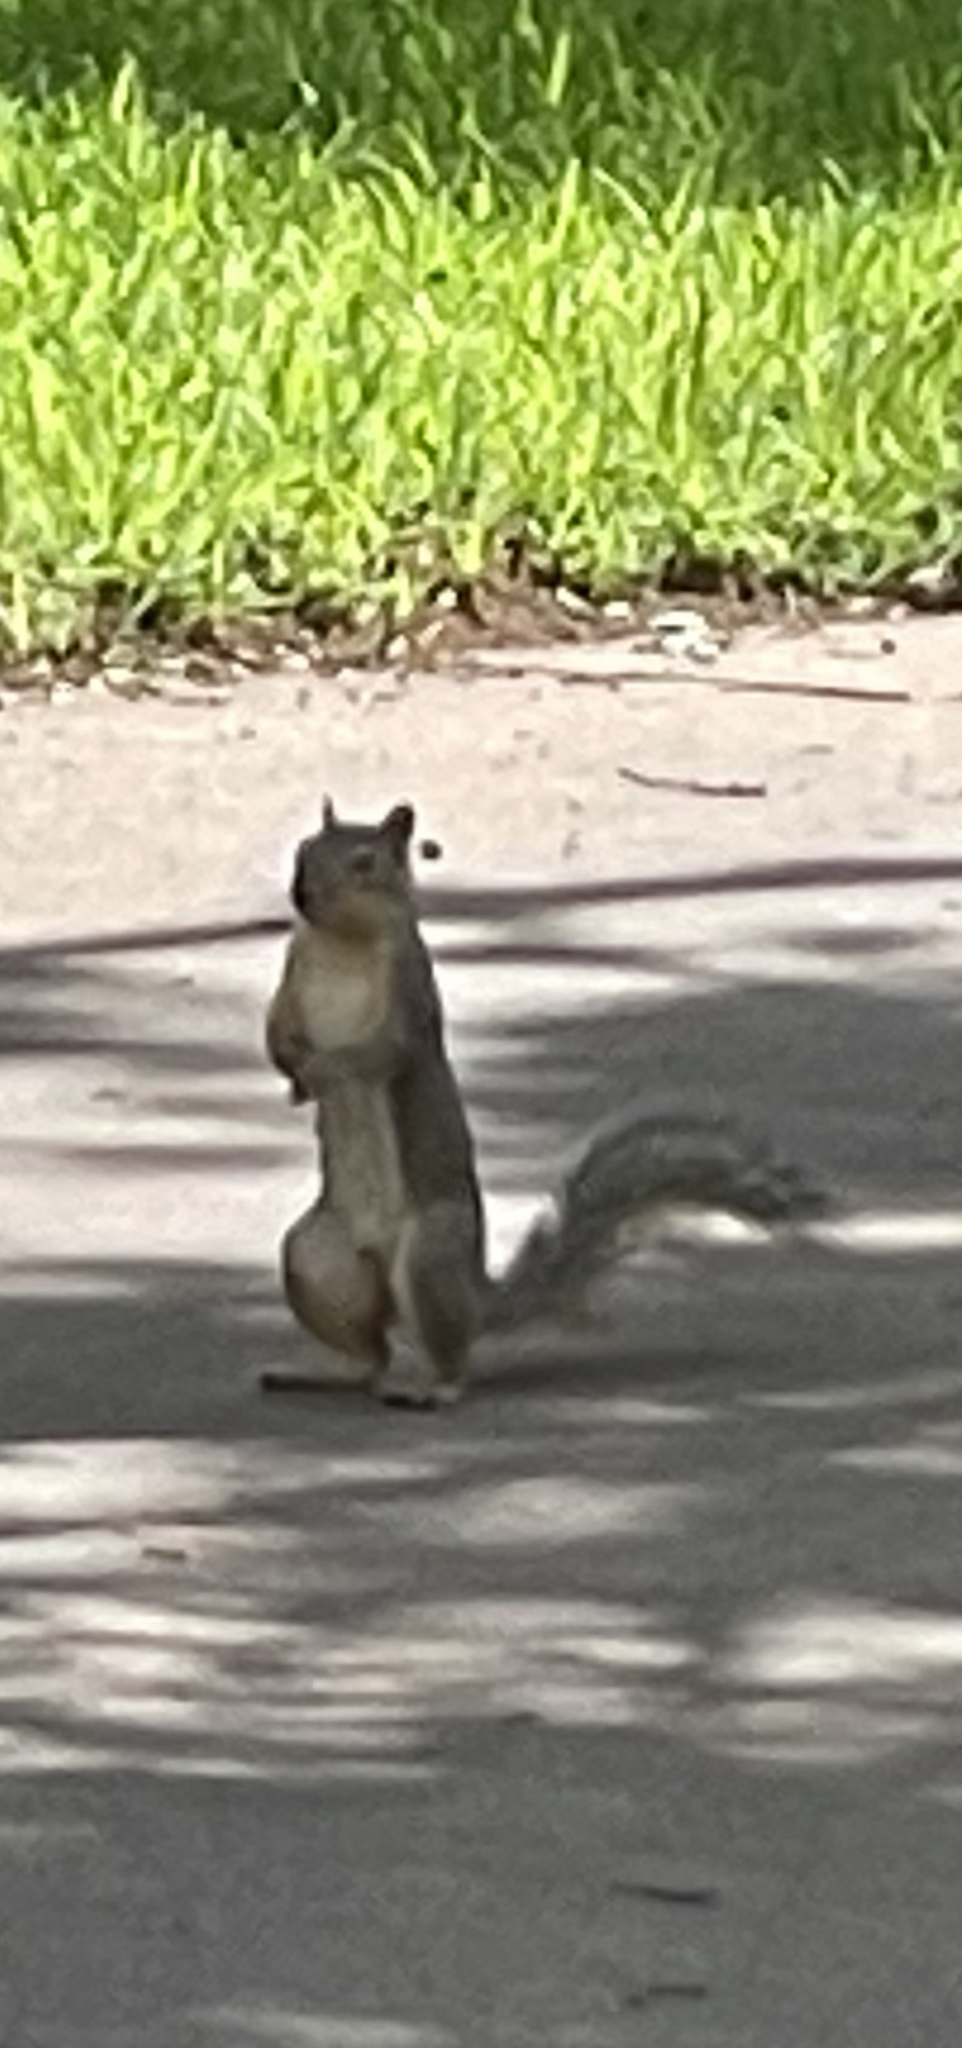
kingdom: Animalia
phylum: Chordata
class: Mammalia
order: Rodentia
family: Sciuridae
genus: Sciurus
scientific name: Sciurus niger
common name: Fox squirrel
